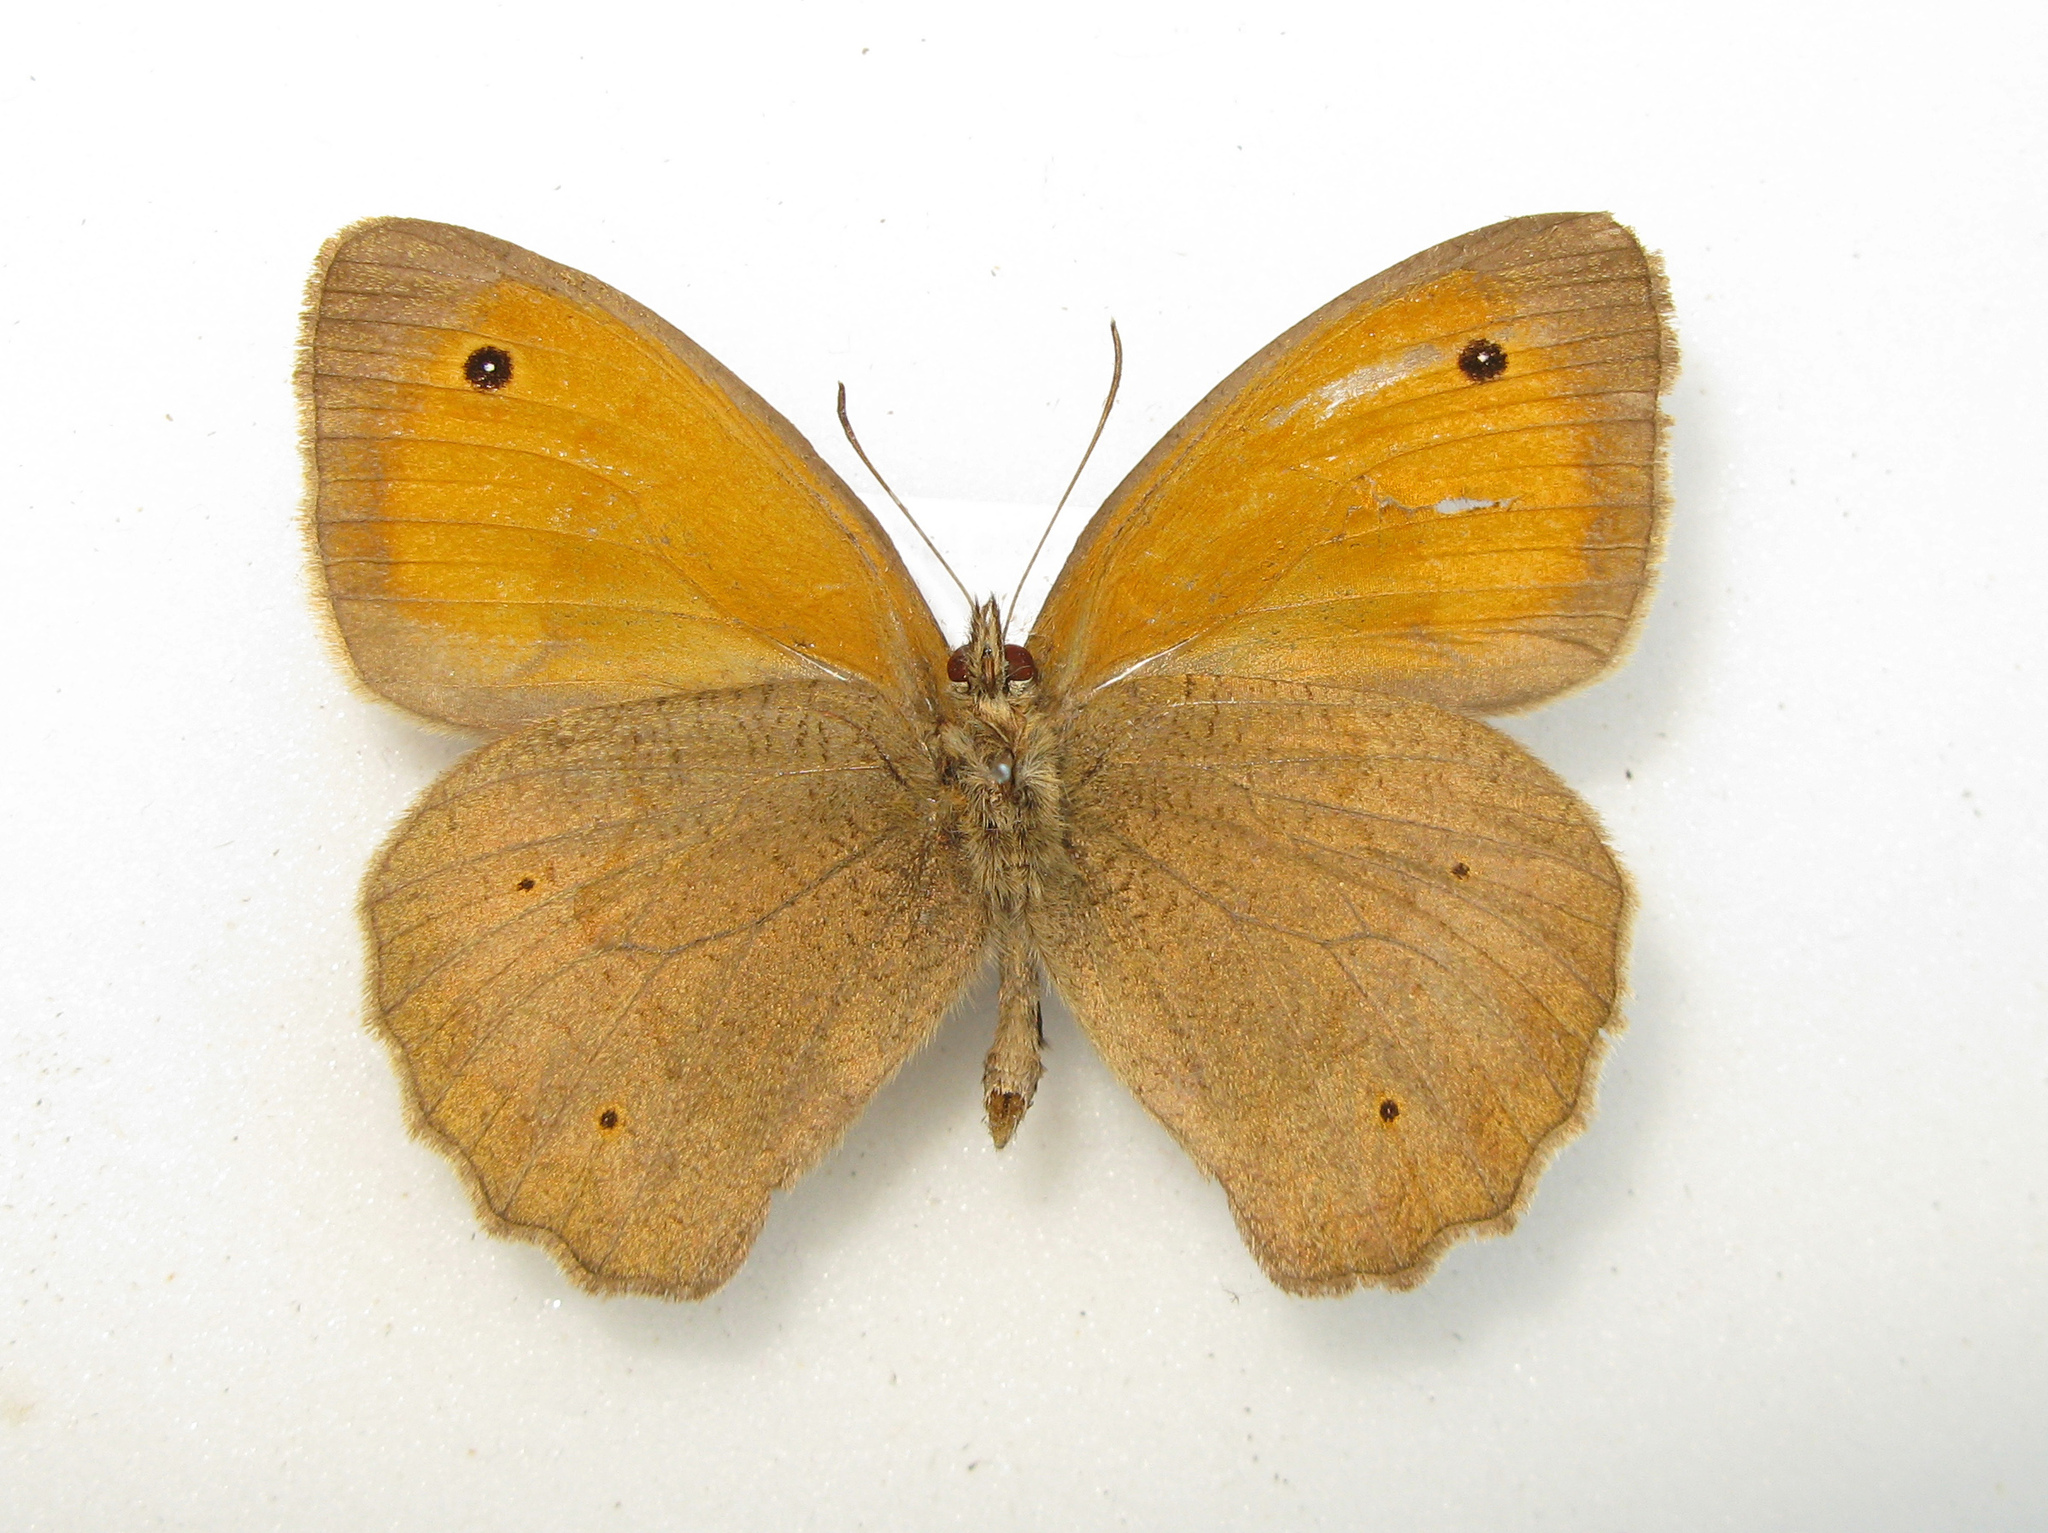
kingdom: Animalia
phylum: Arthropoda
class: Insecta
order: Lepidoptera
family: Nymphalidae
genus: Maniola
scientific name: Maniola jurtina
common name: Meadow brown
